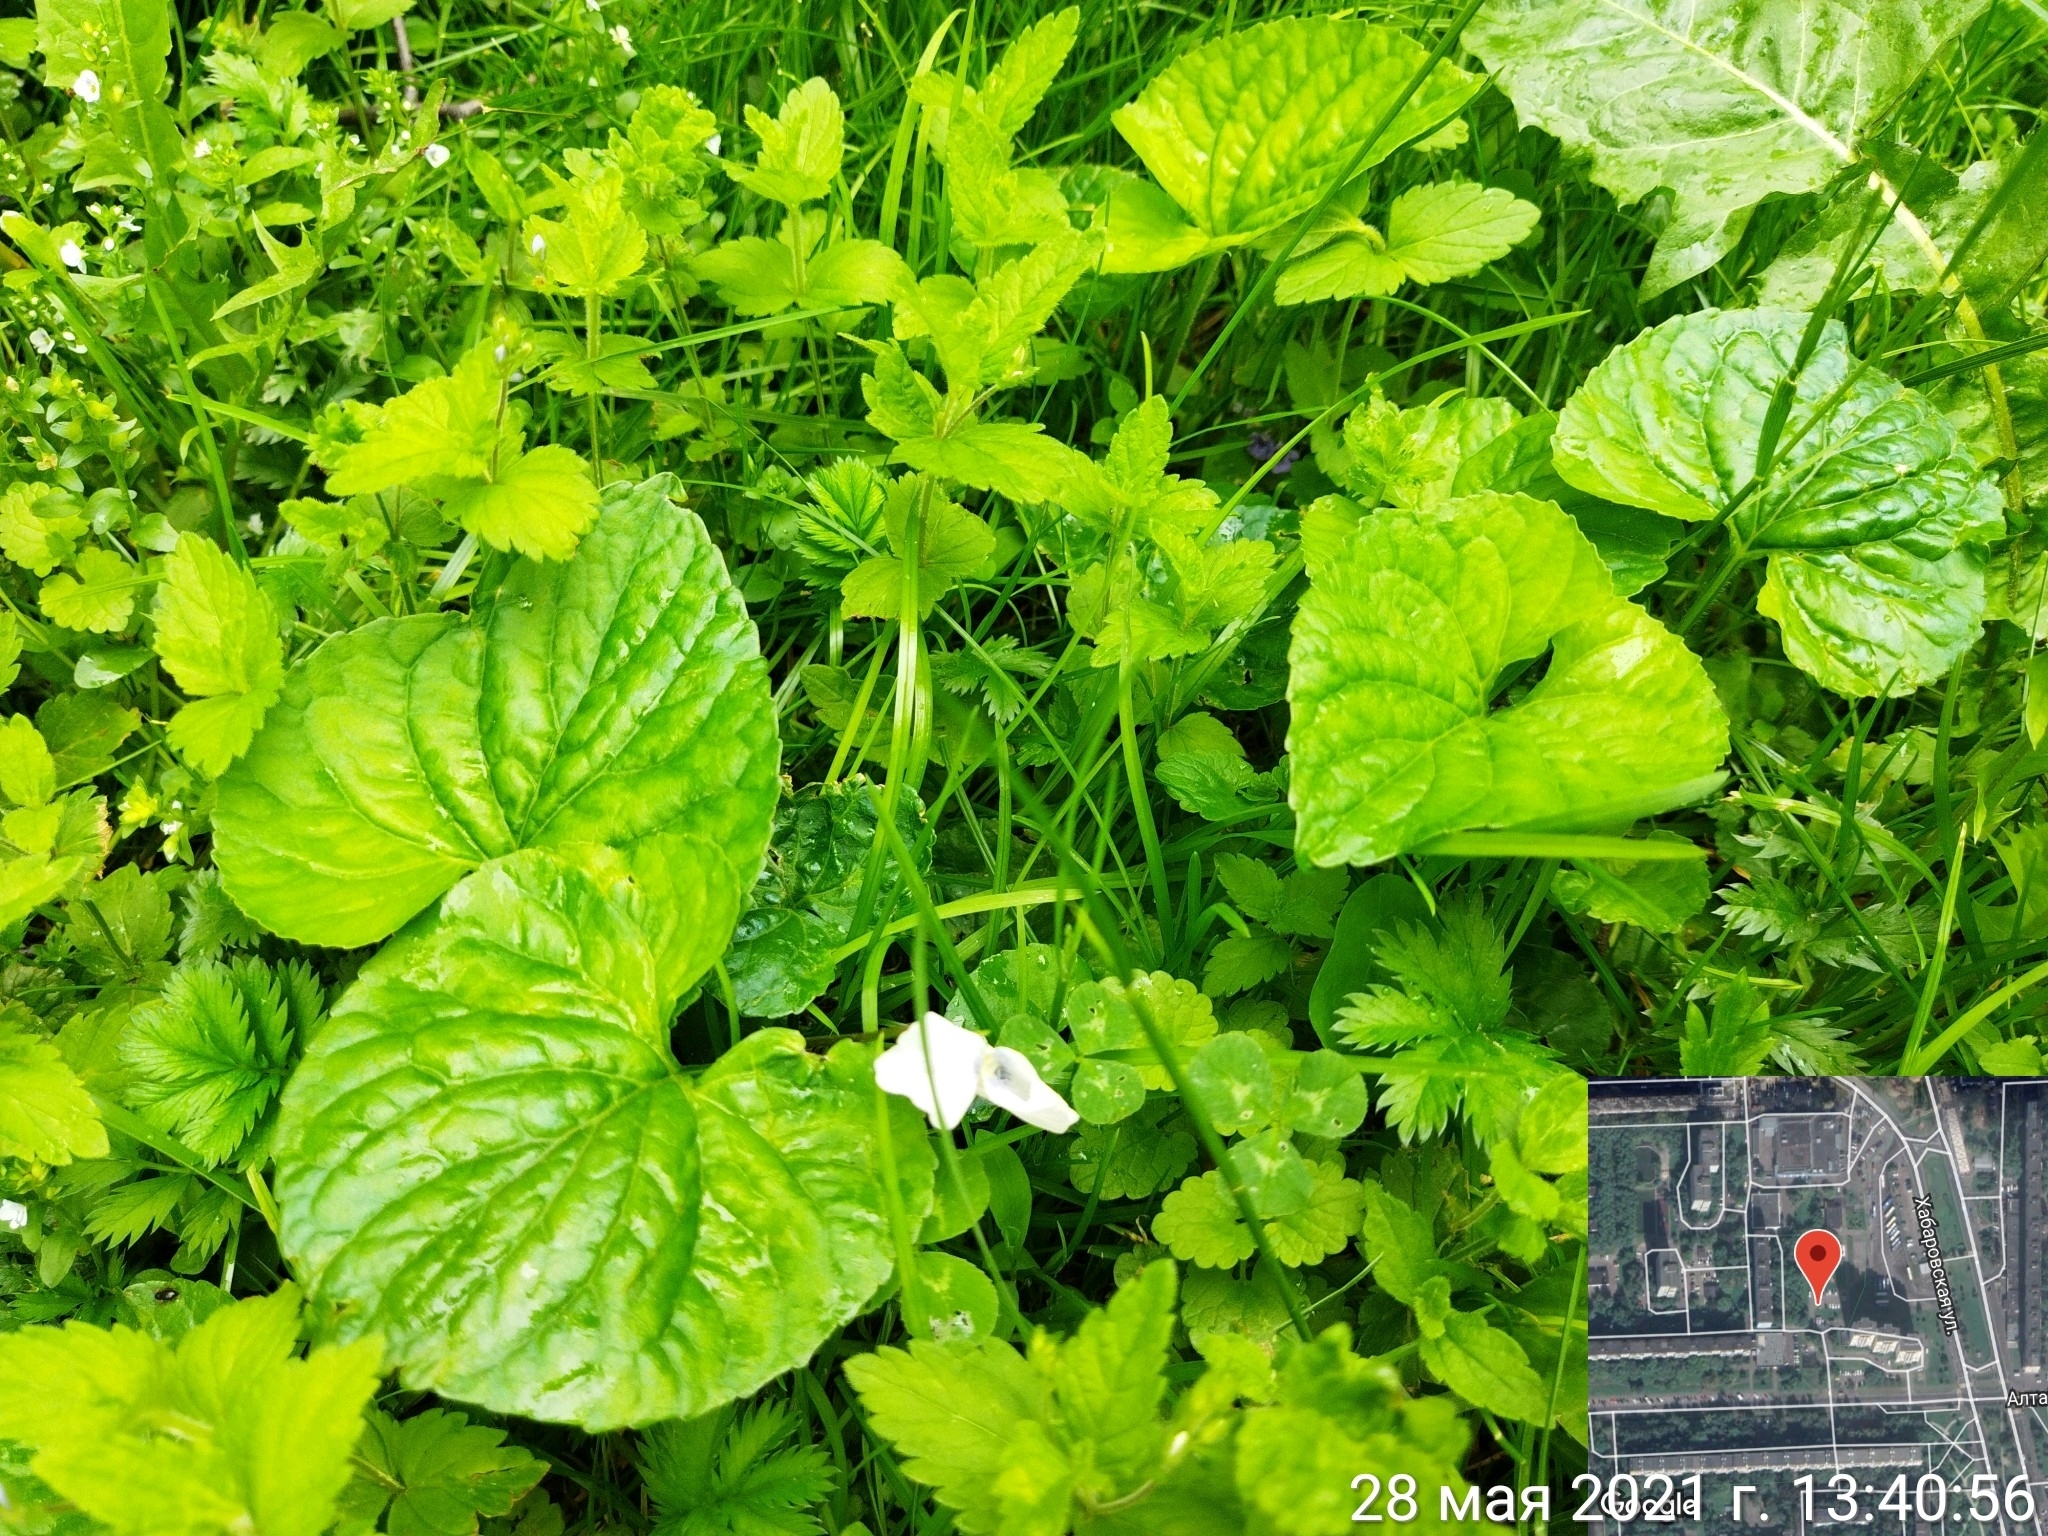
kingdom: Plantae
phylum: Tracheophyta
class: Magnoliopsida
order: Malpighiales
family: Violaceae
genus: Viola
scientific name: Viola odorata
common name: Sweet violet
